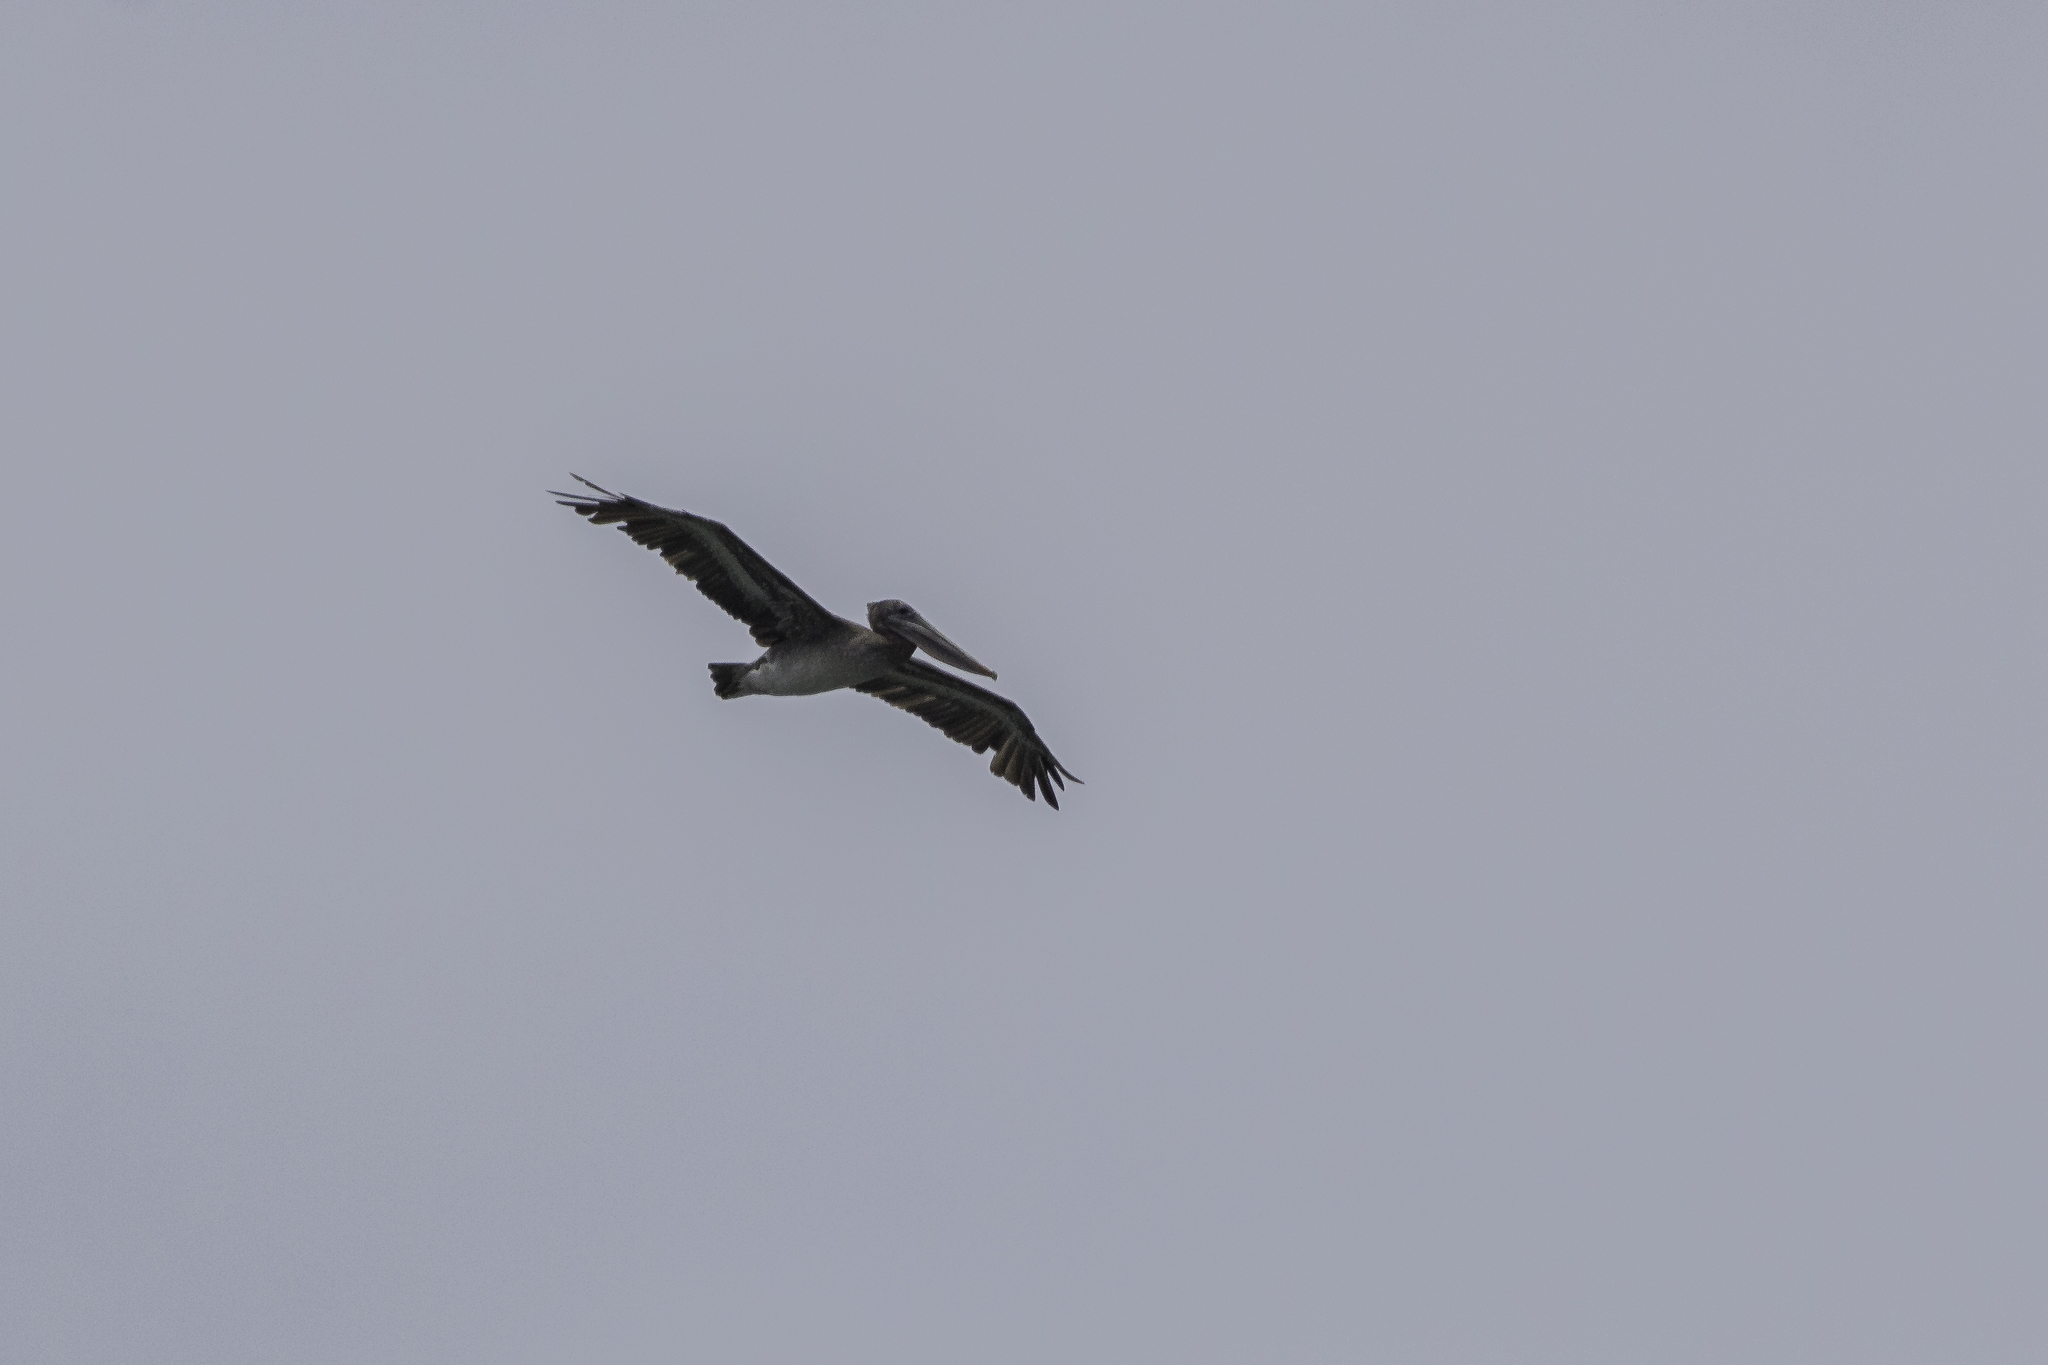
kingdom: Animalia
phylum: Chordata
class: Aves
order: Pelecaniformes
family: Pelecanidae
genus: Pelecanus
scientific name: Pelecanus occidentalis
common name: Brown pelican
